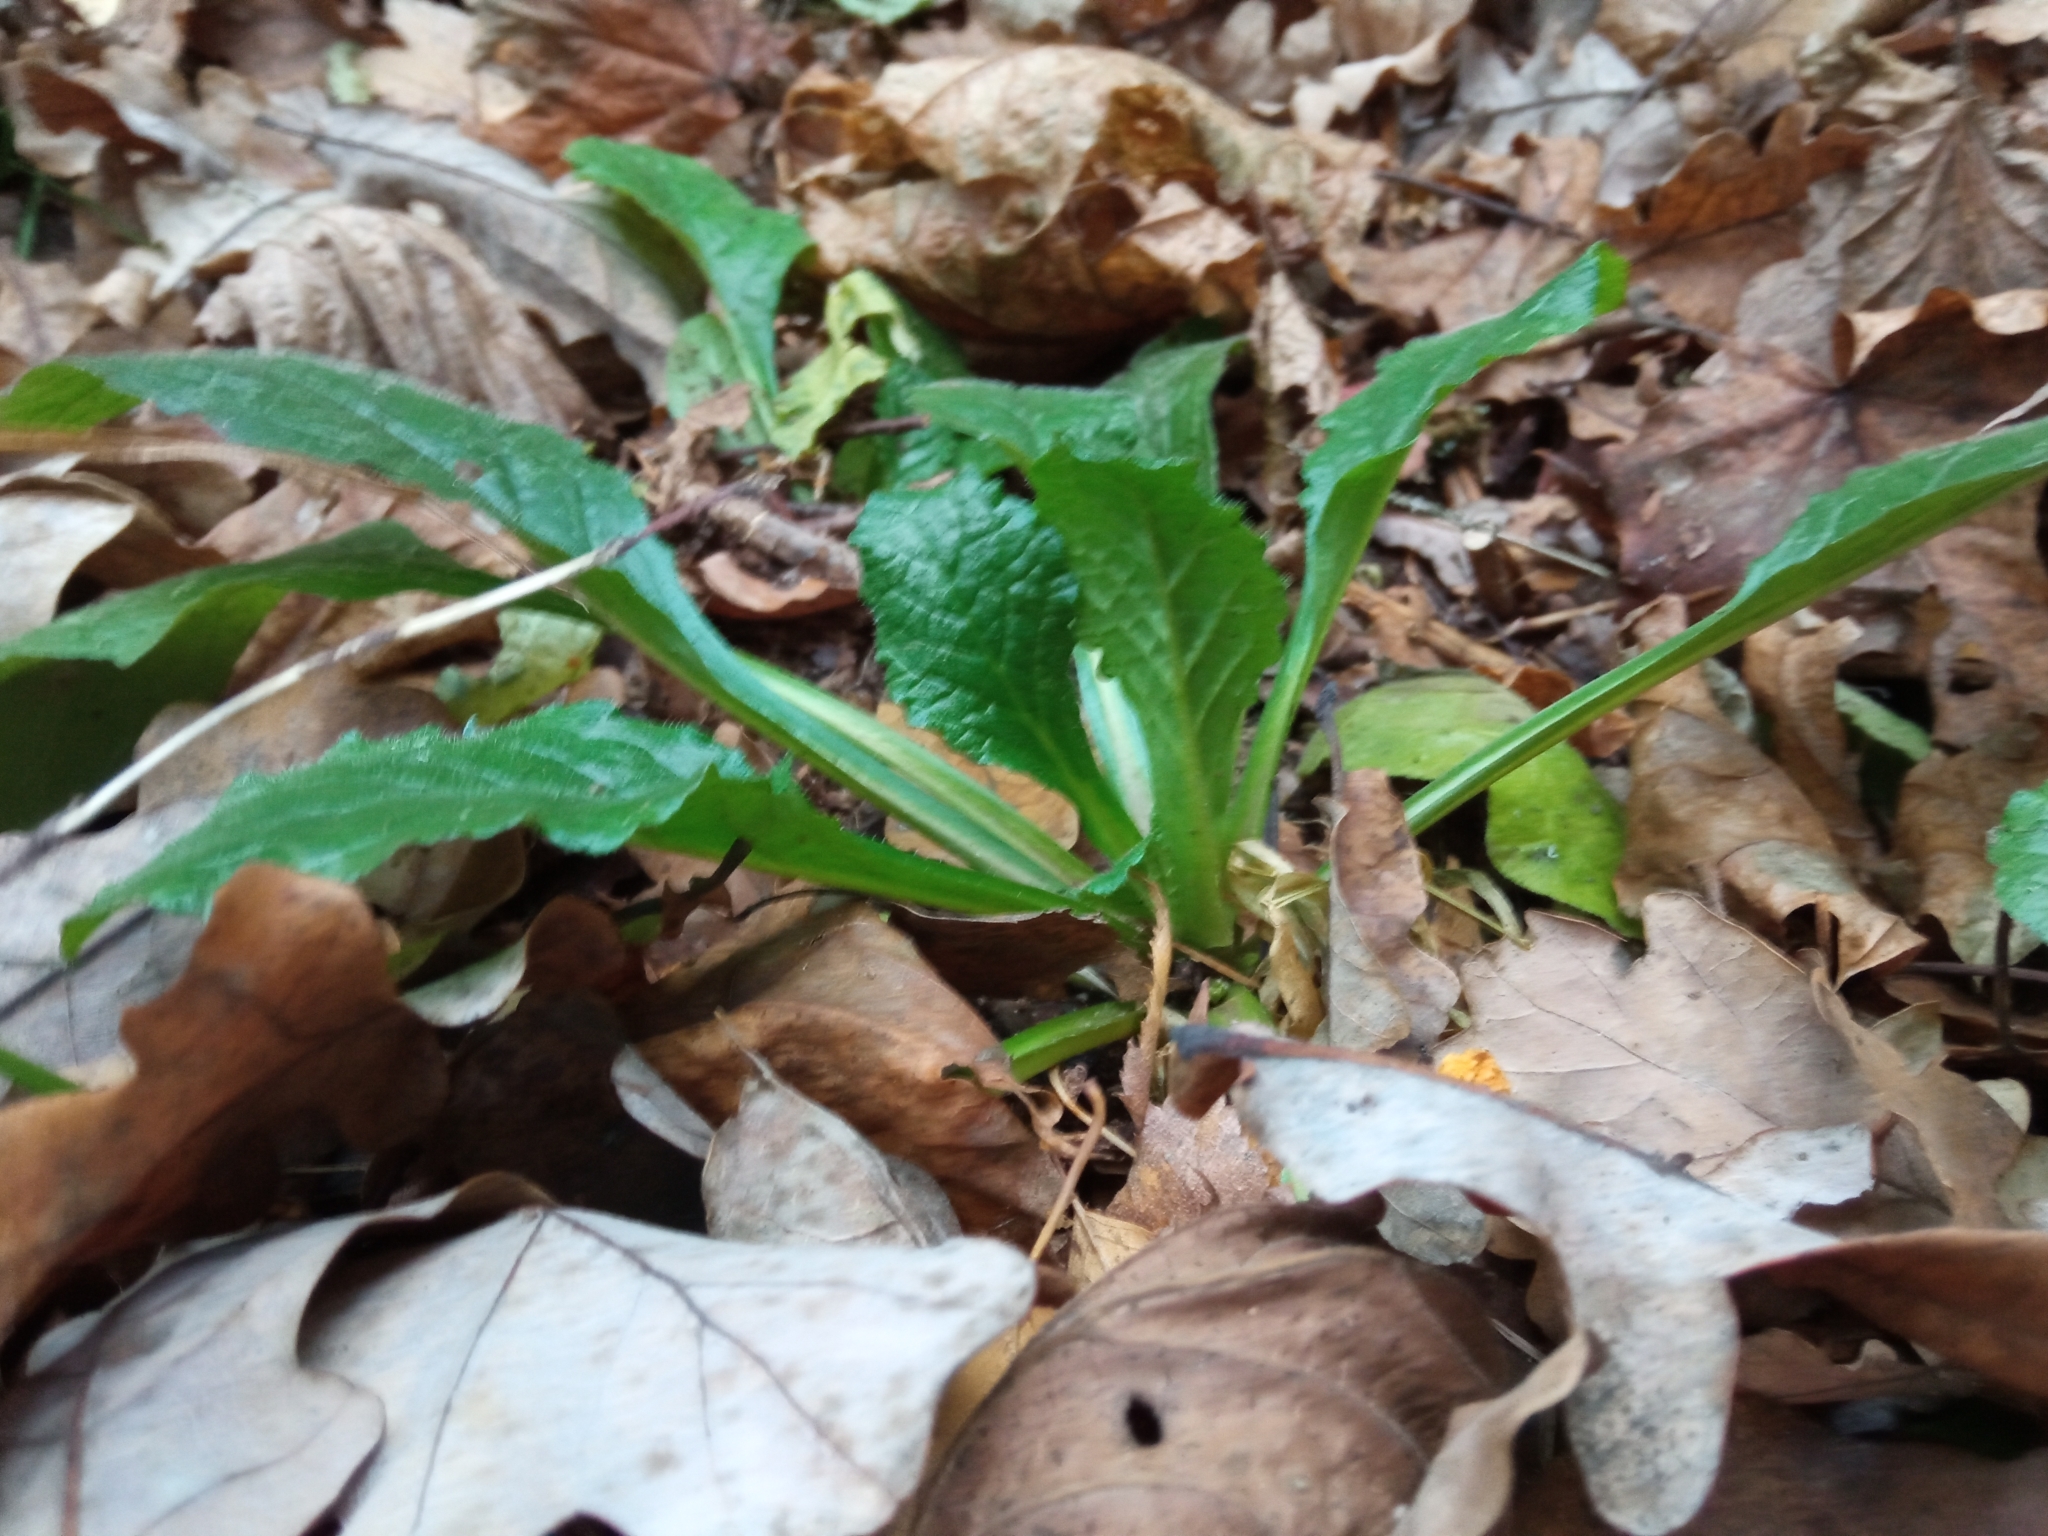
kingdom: Plantae
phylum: Tracheophyta
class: Magnoliopsida
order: Lamiales
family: Lamiaceae
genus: Ajuga
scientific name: Ajuga reptans
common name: Bugle
